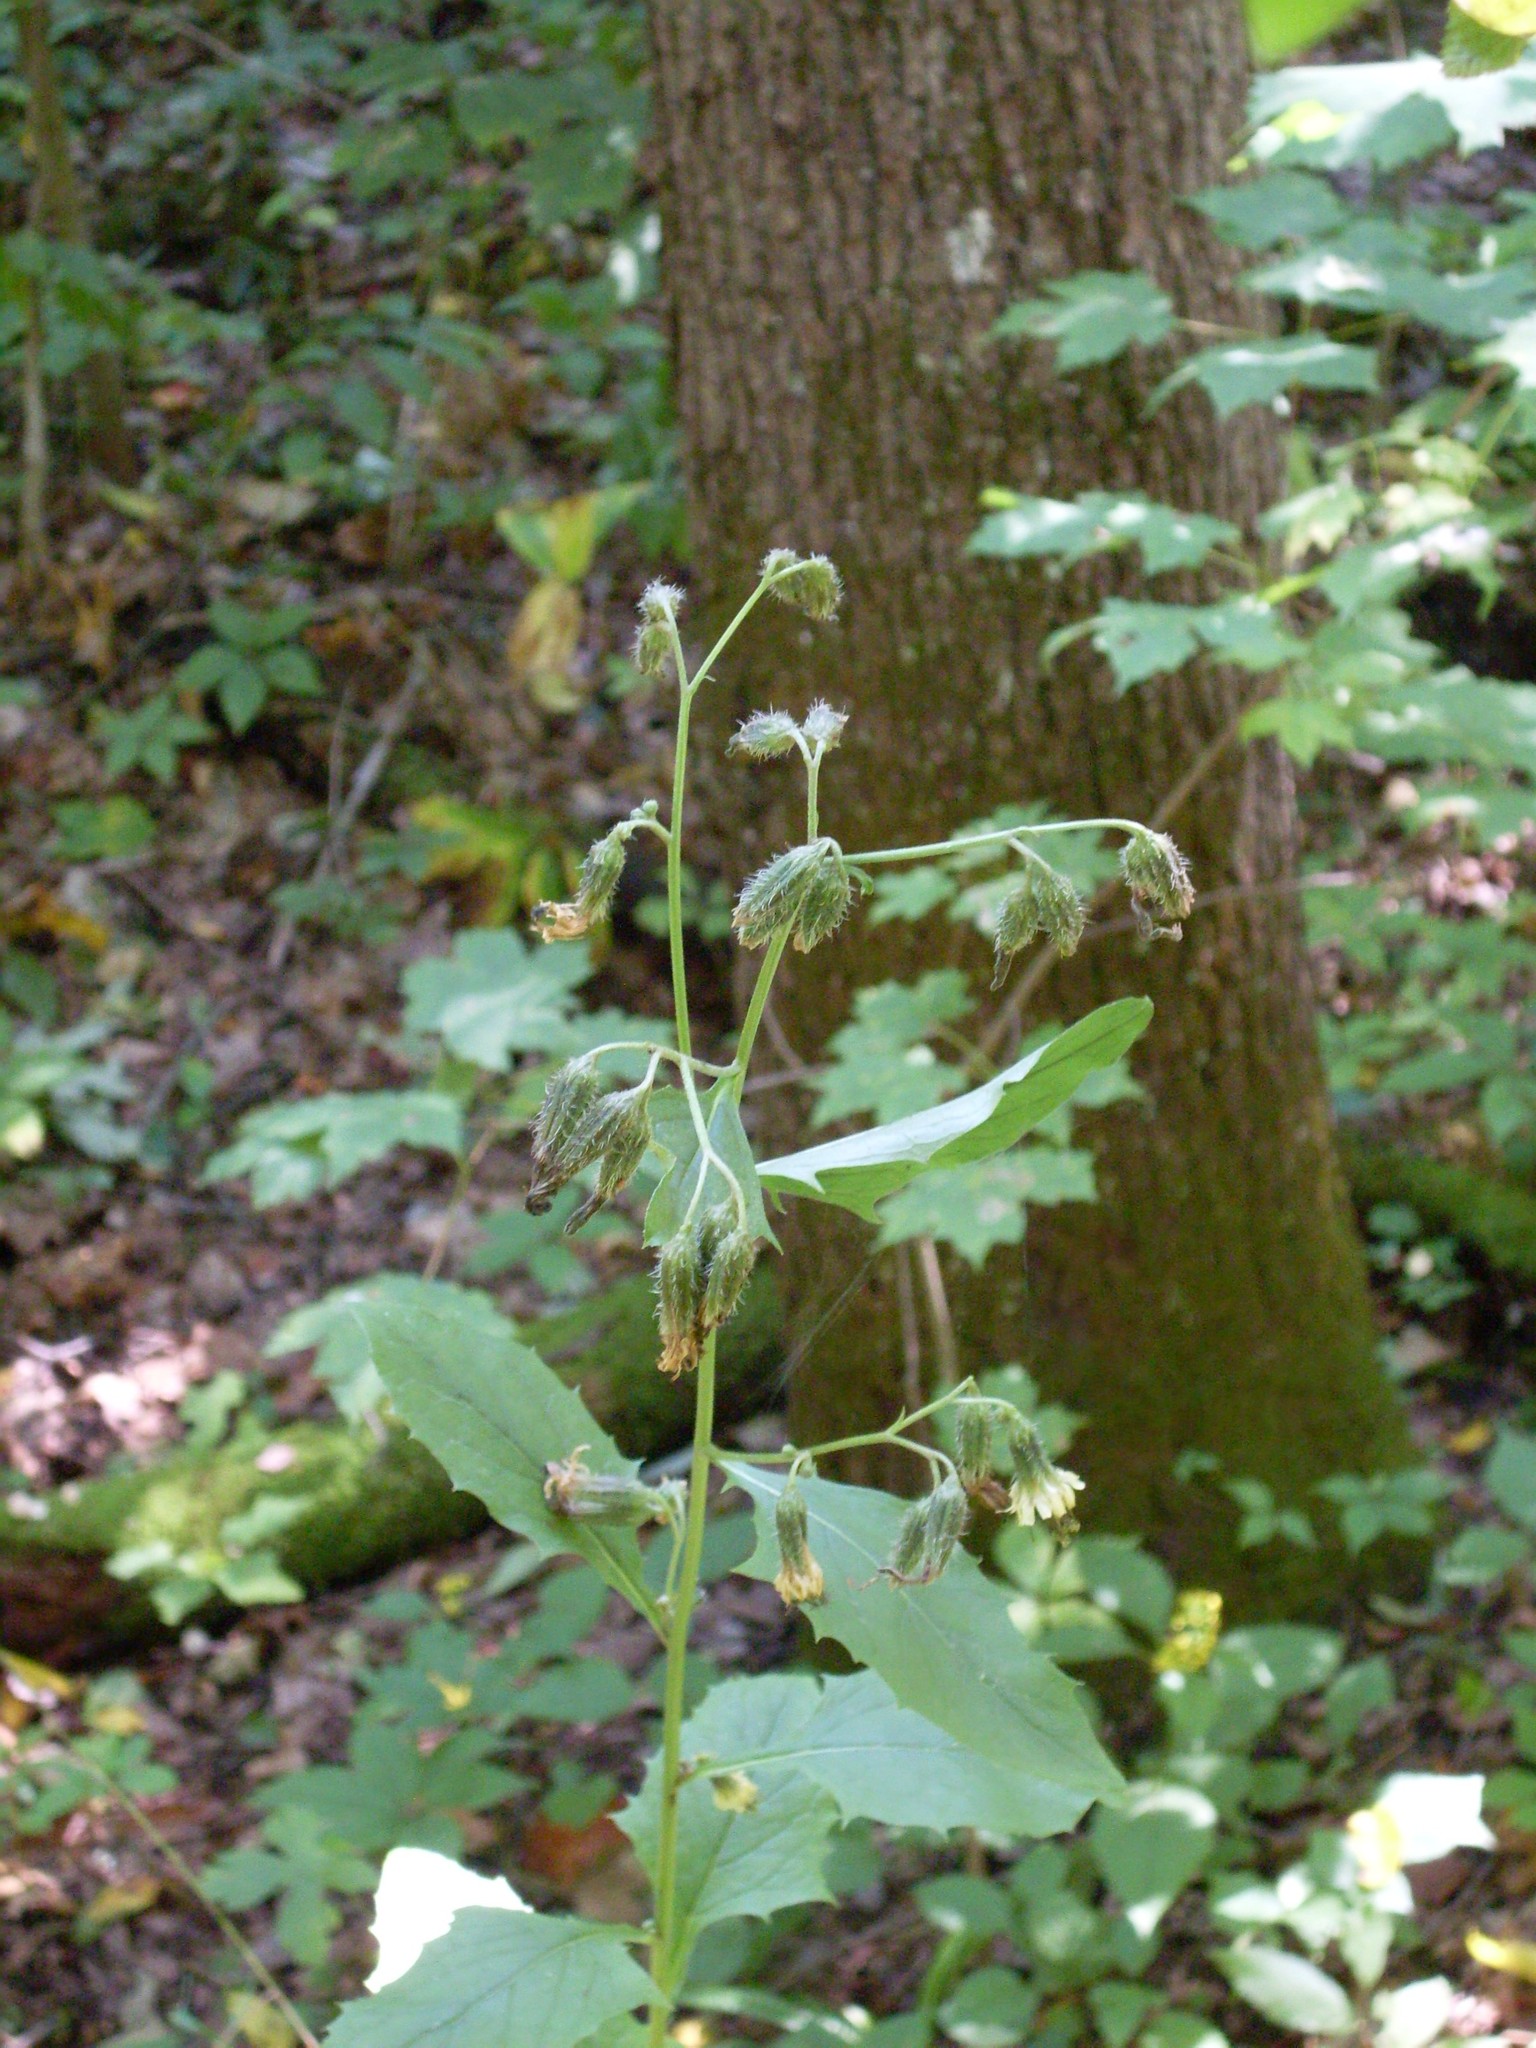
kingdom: Plantae
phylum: Tracheophyta
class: Magnoliopsida
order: Asterales
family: Asteraceae
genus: Nabalus
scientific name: Nabalus crepidineus
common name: Nodding rattlesnakeroot
